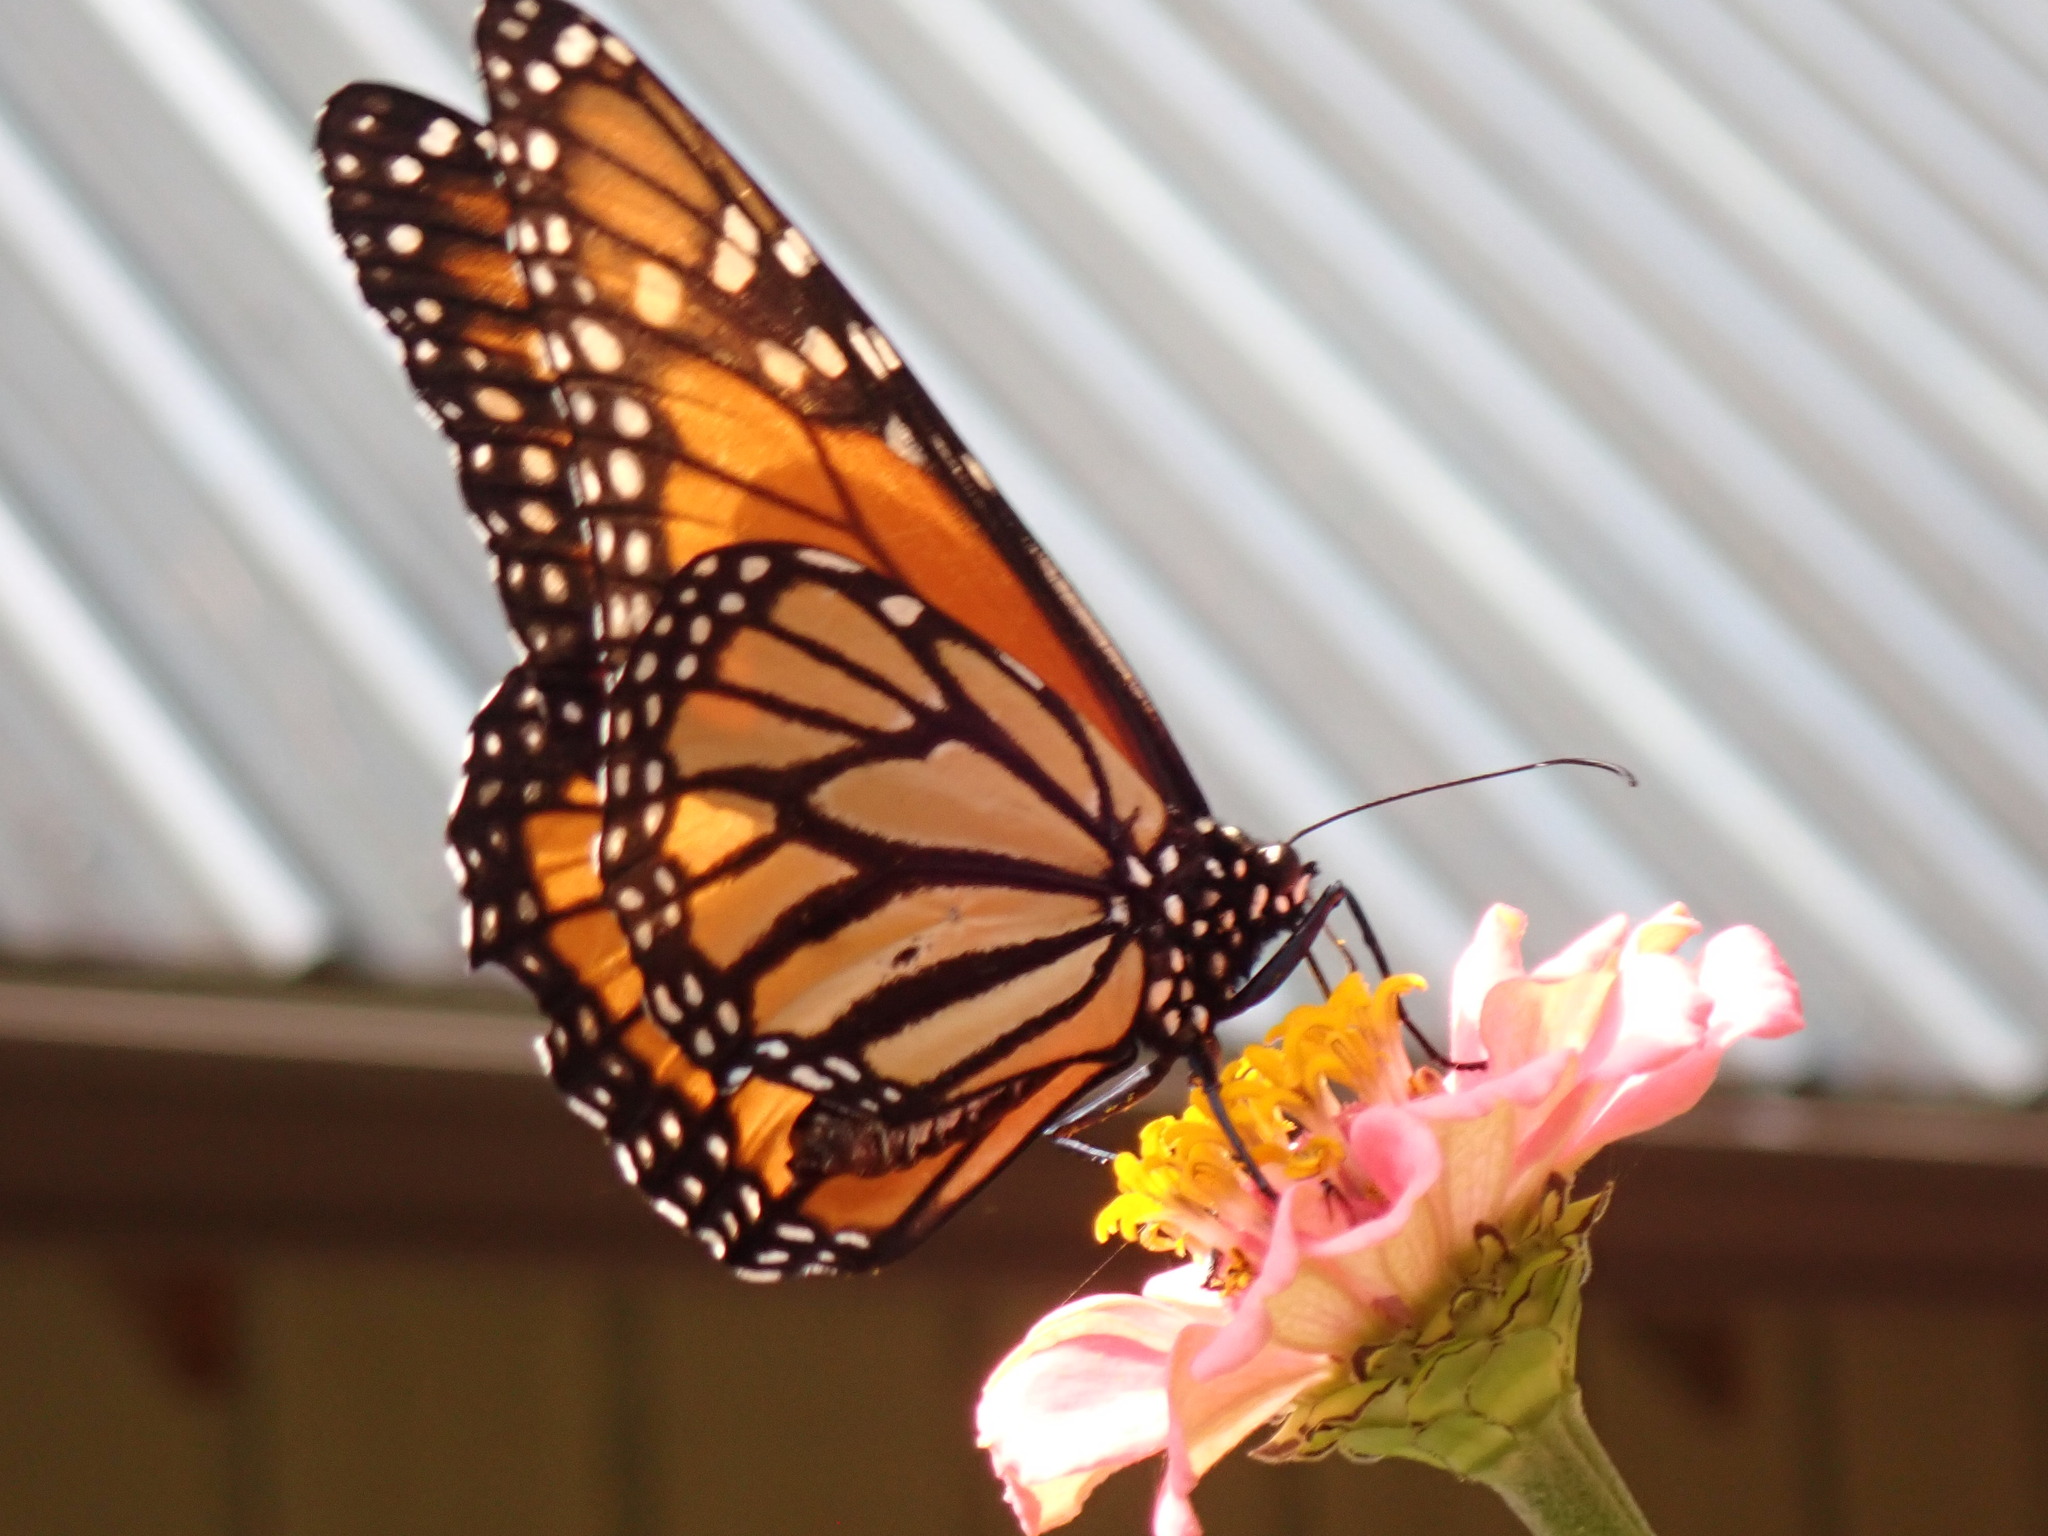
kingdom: Animalia
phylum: Arthropoda
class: Insecta
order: Lepidoptera
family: Nymphalidae
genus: Danaus
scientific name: Danaus plexippus
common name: Monarch
